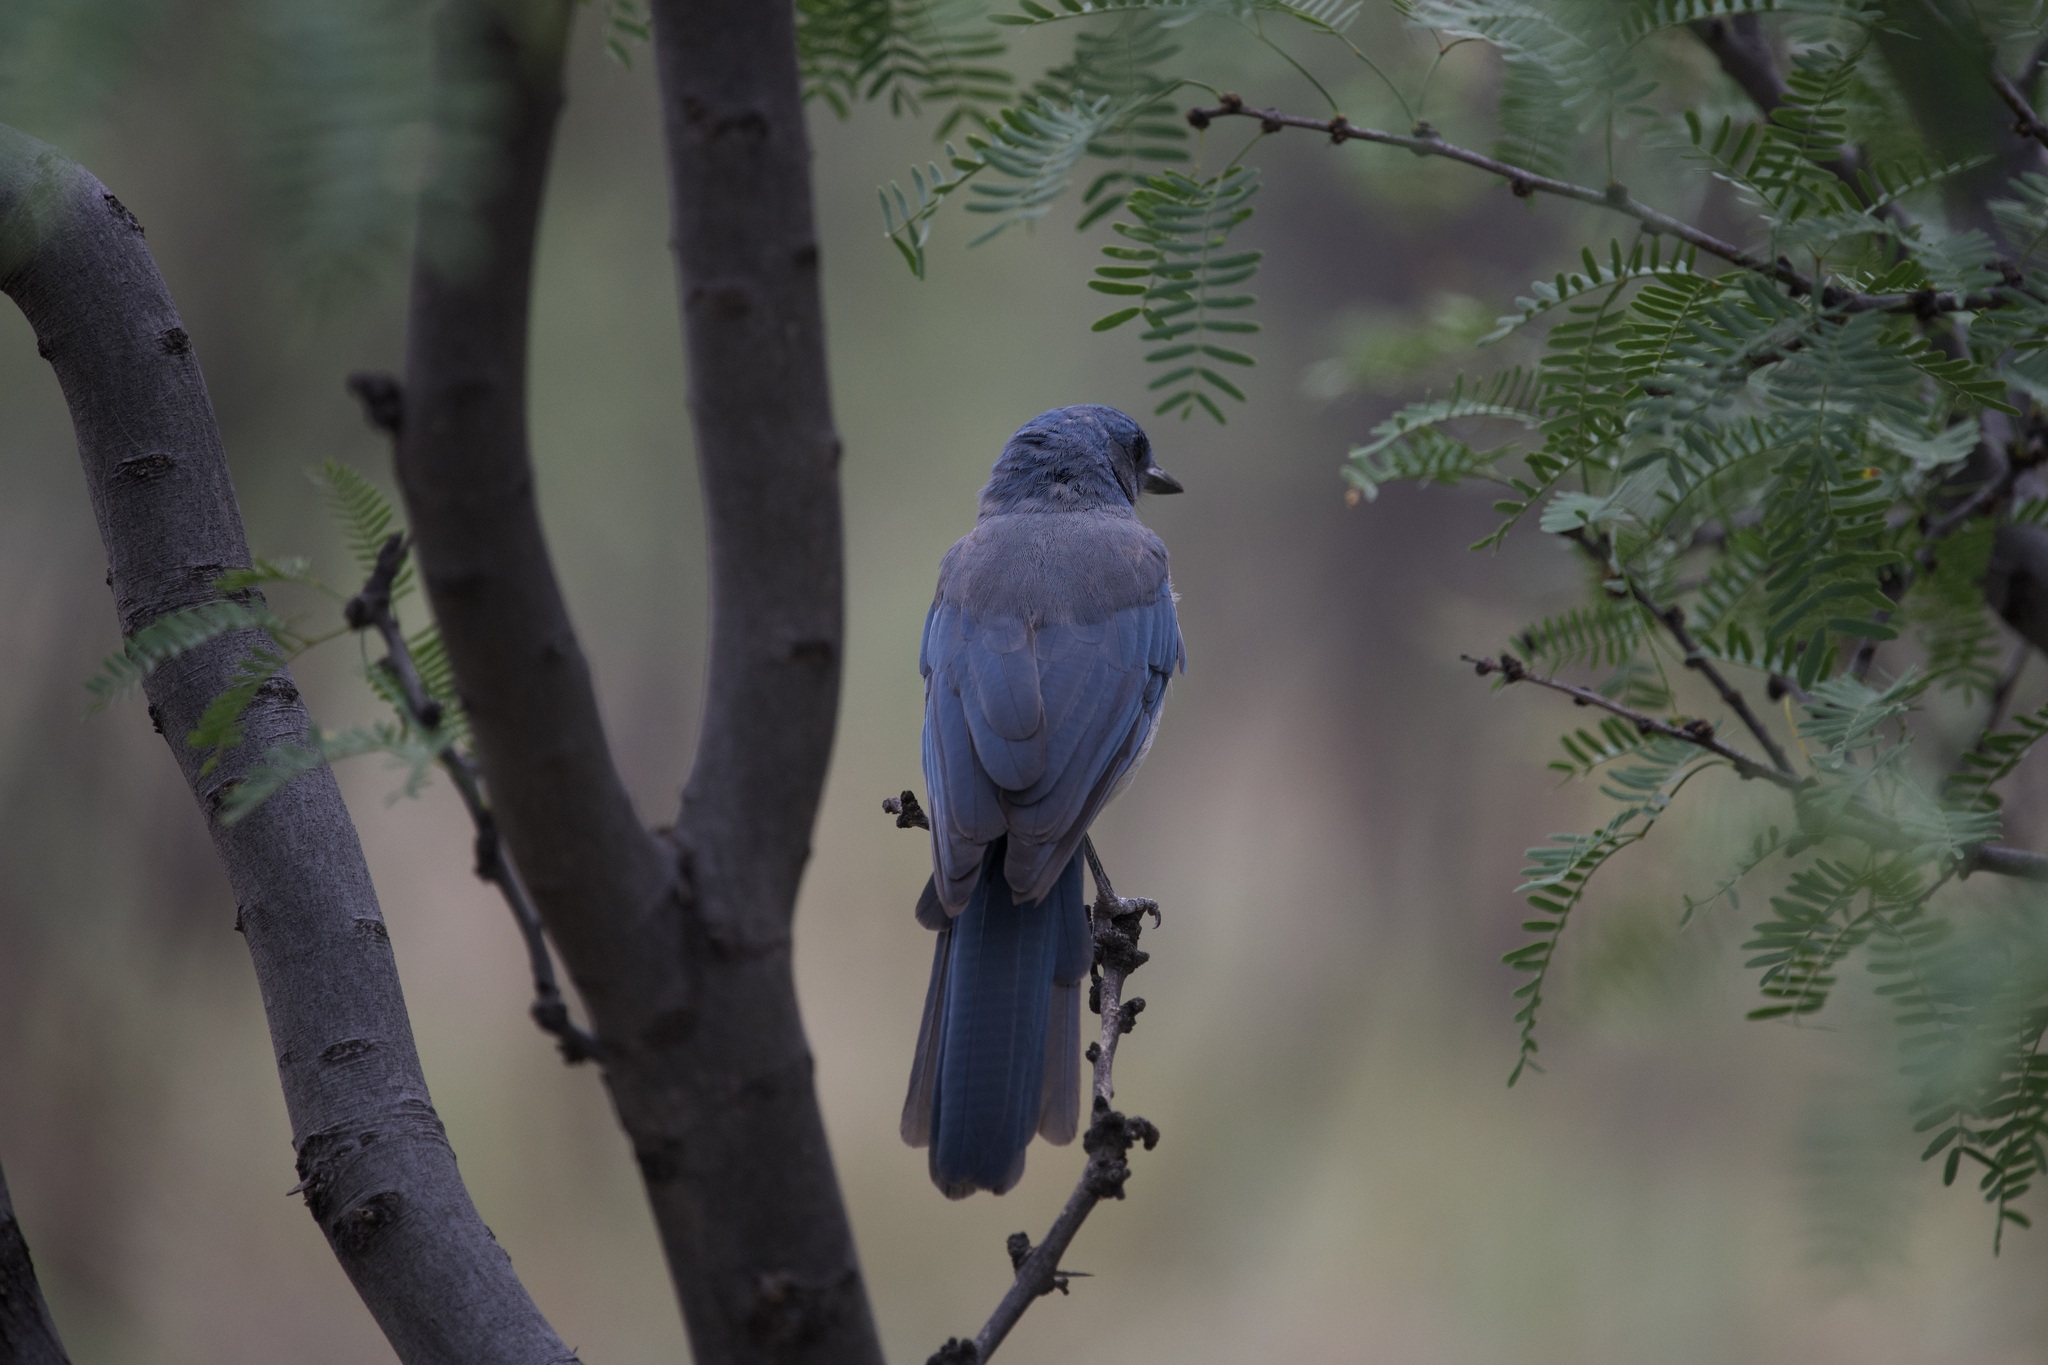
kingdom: Animalia
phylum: Chordata
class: Aves
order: Passeriformes
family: Corvidae
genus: Aphelocoma
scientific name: Aphelocoma wollweberi
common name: Mexican jay
